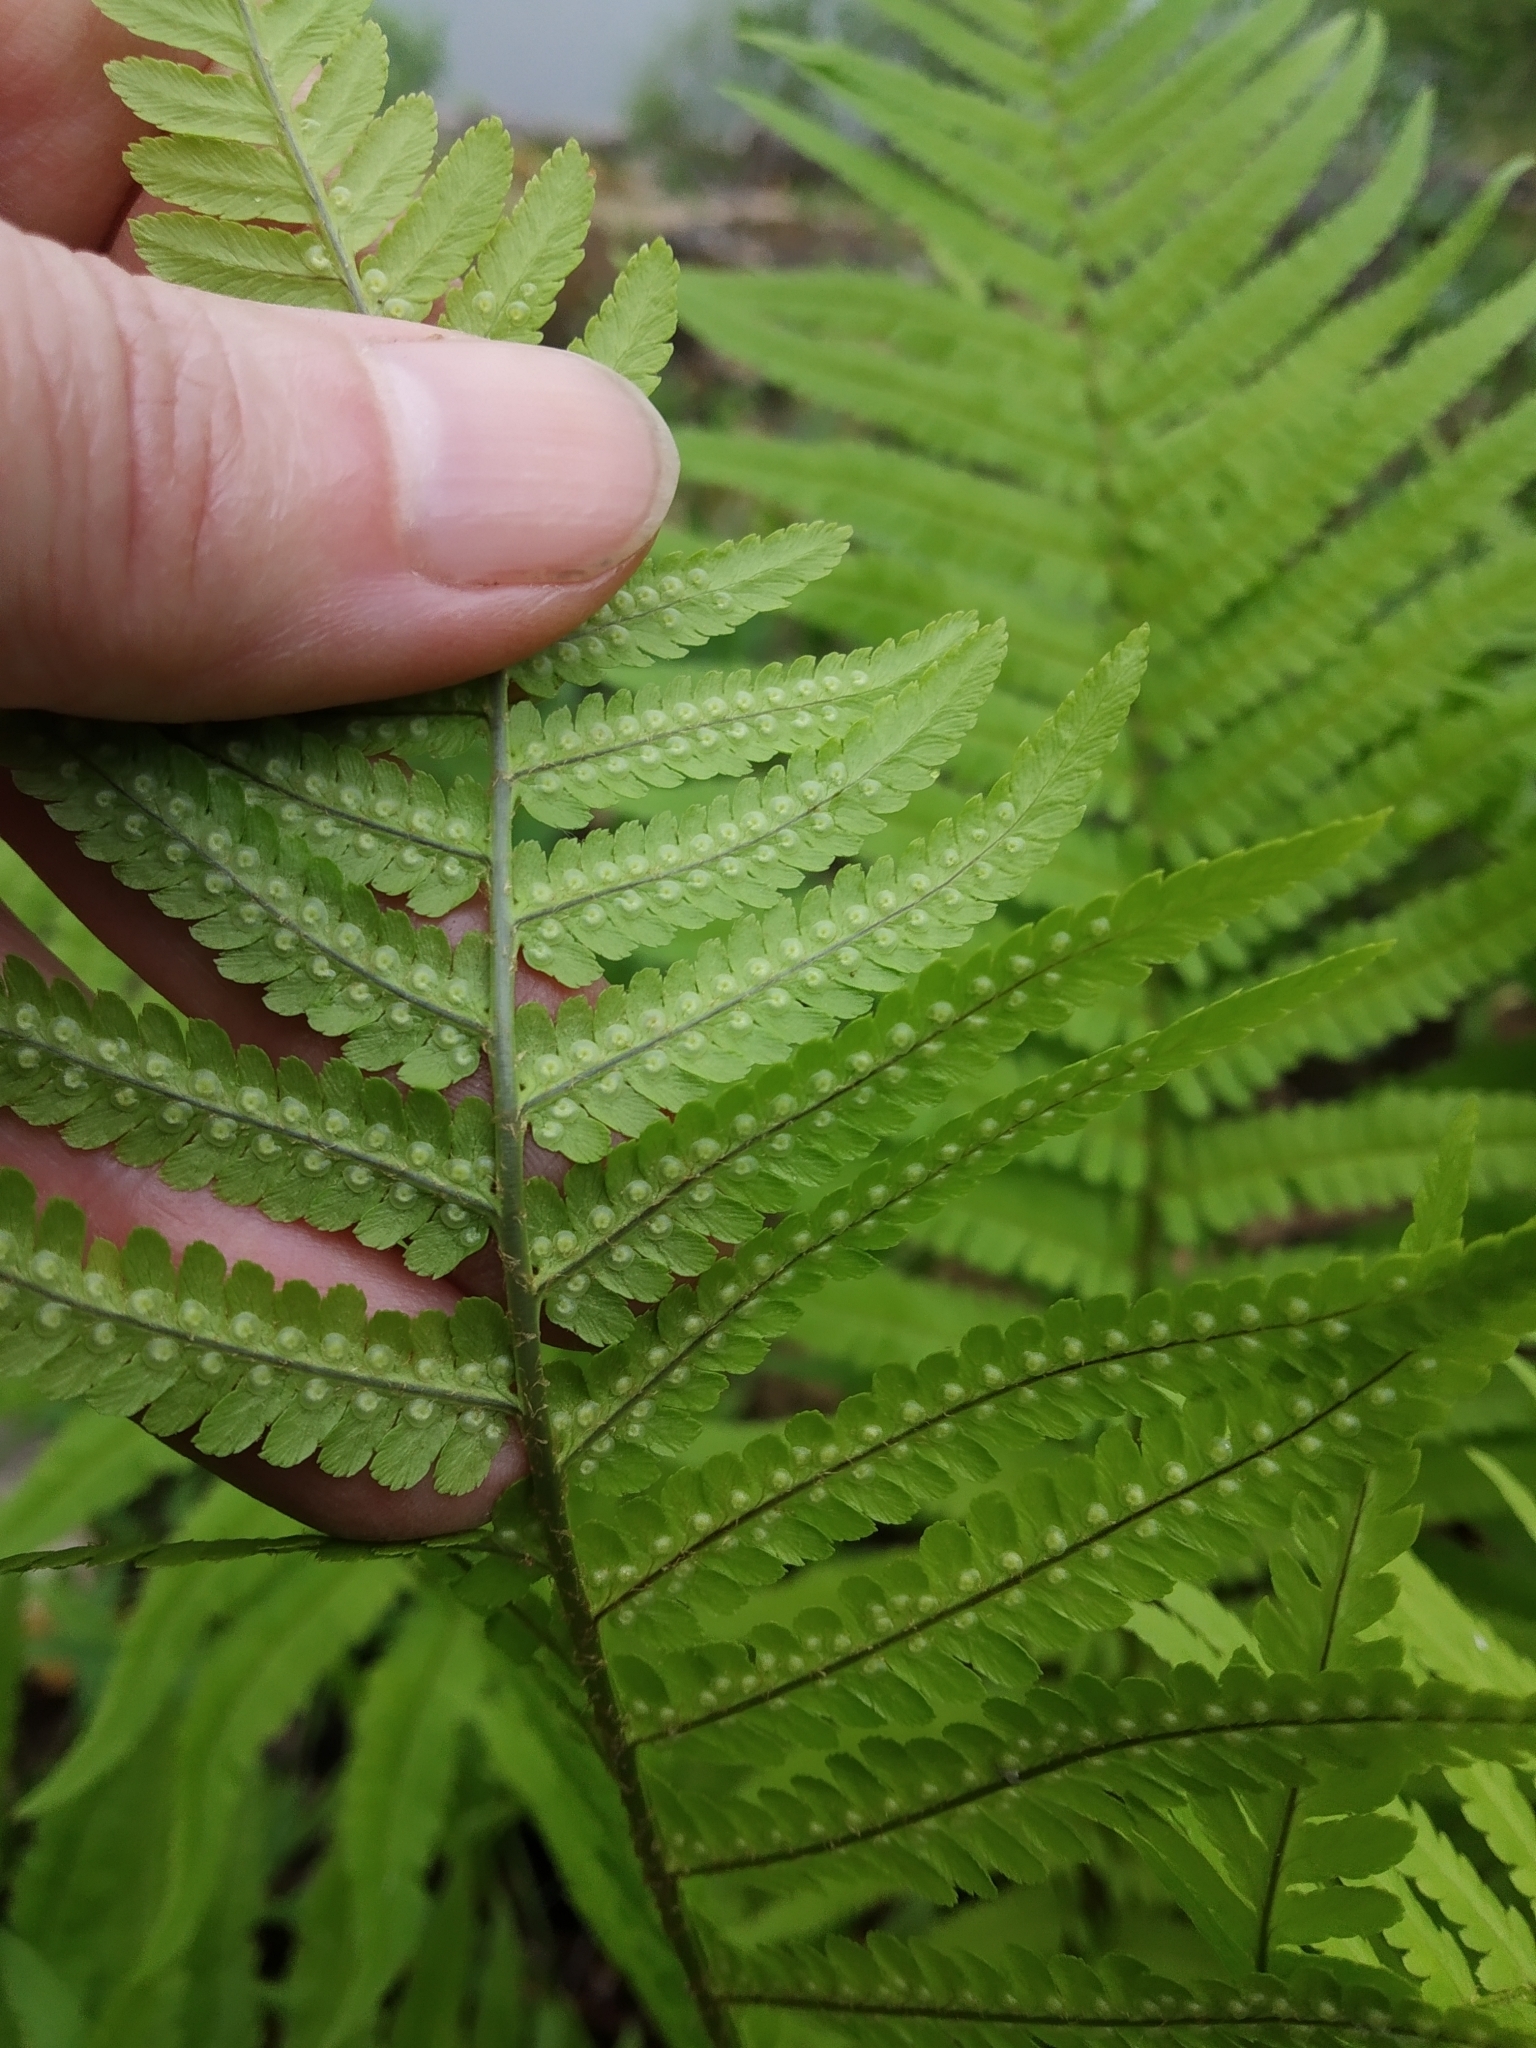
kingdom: Plantae
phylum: Tracheophyta
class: Polypodiopsida
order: Polypodiales
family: Dryopteridaceae
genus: Dryopteris
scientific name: Dryopteris filix-mas
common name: Male fern
